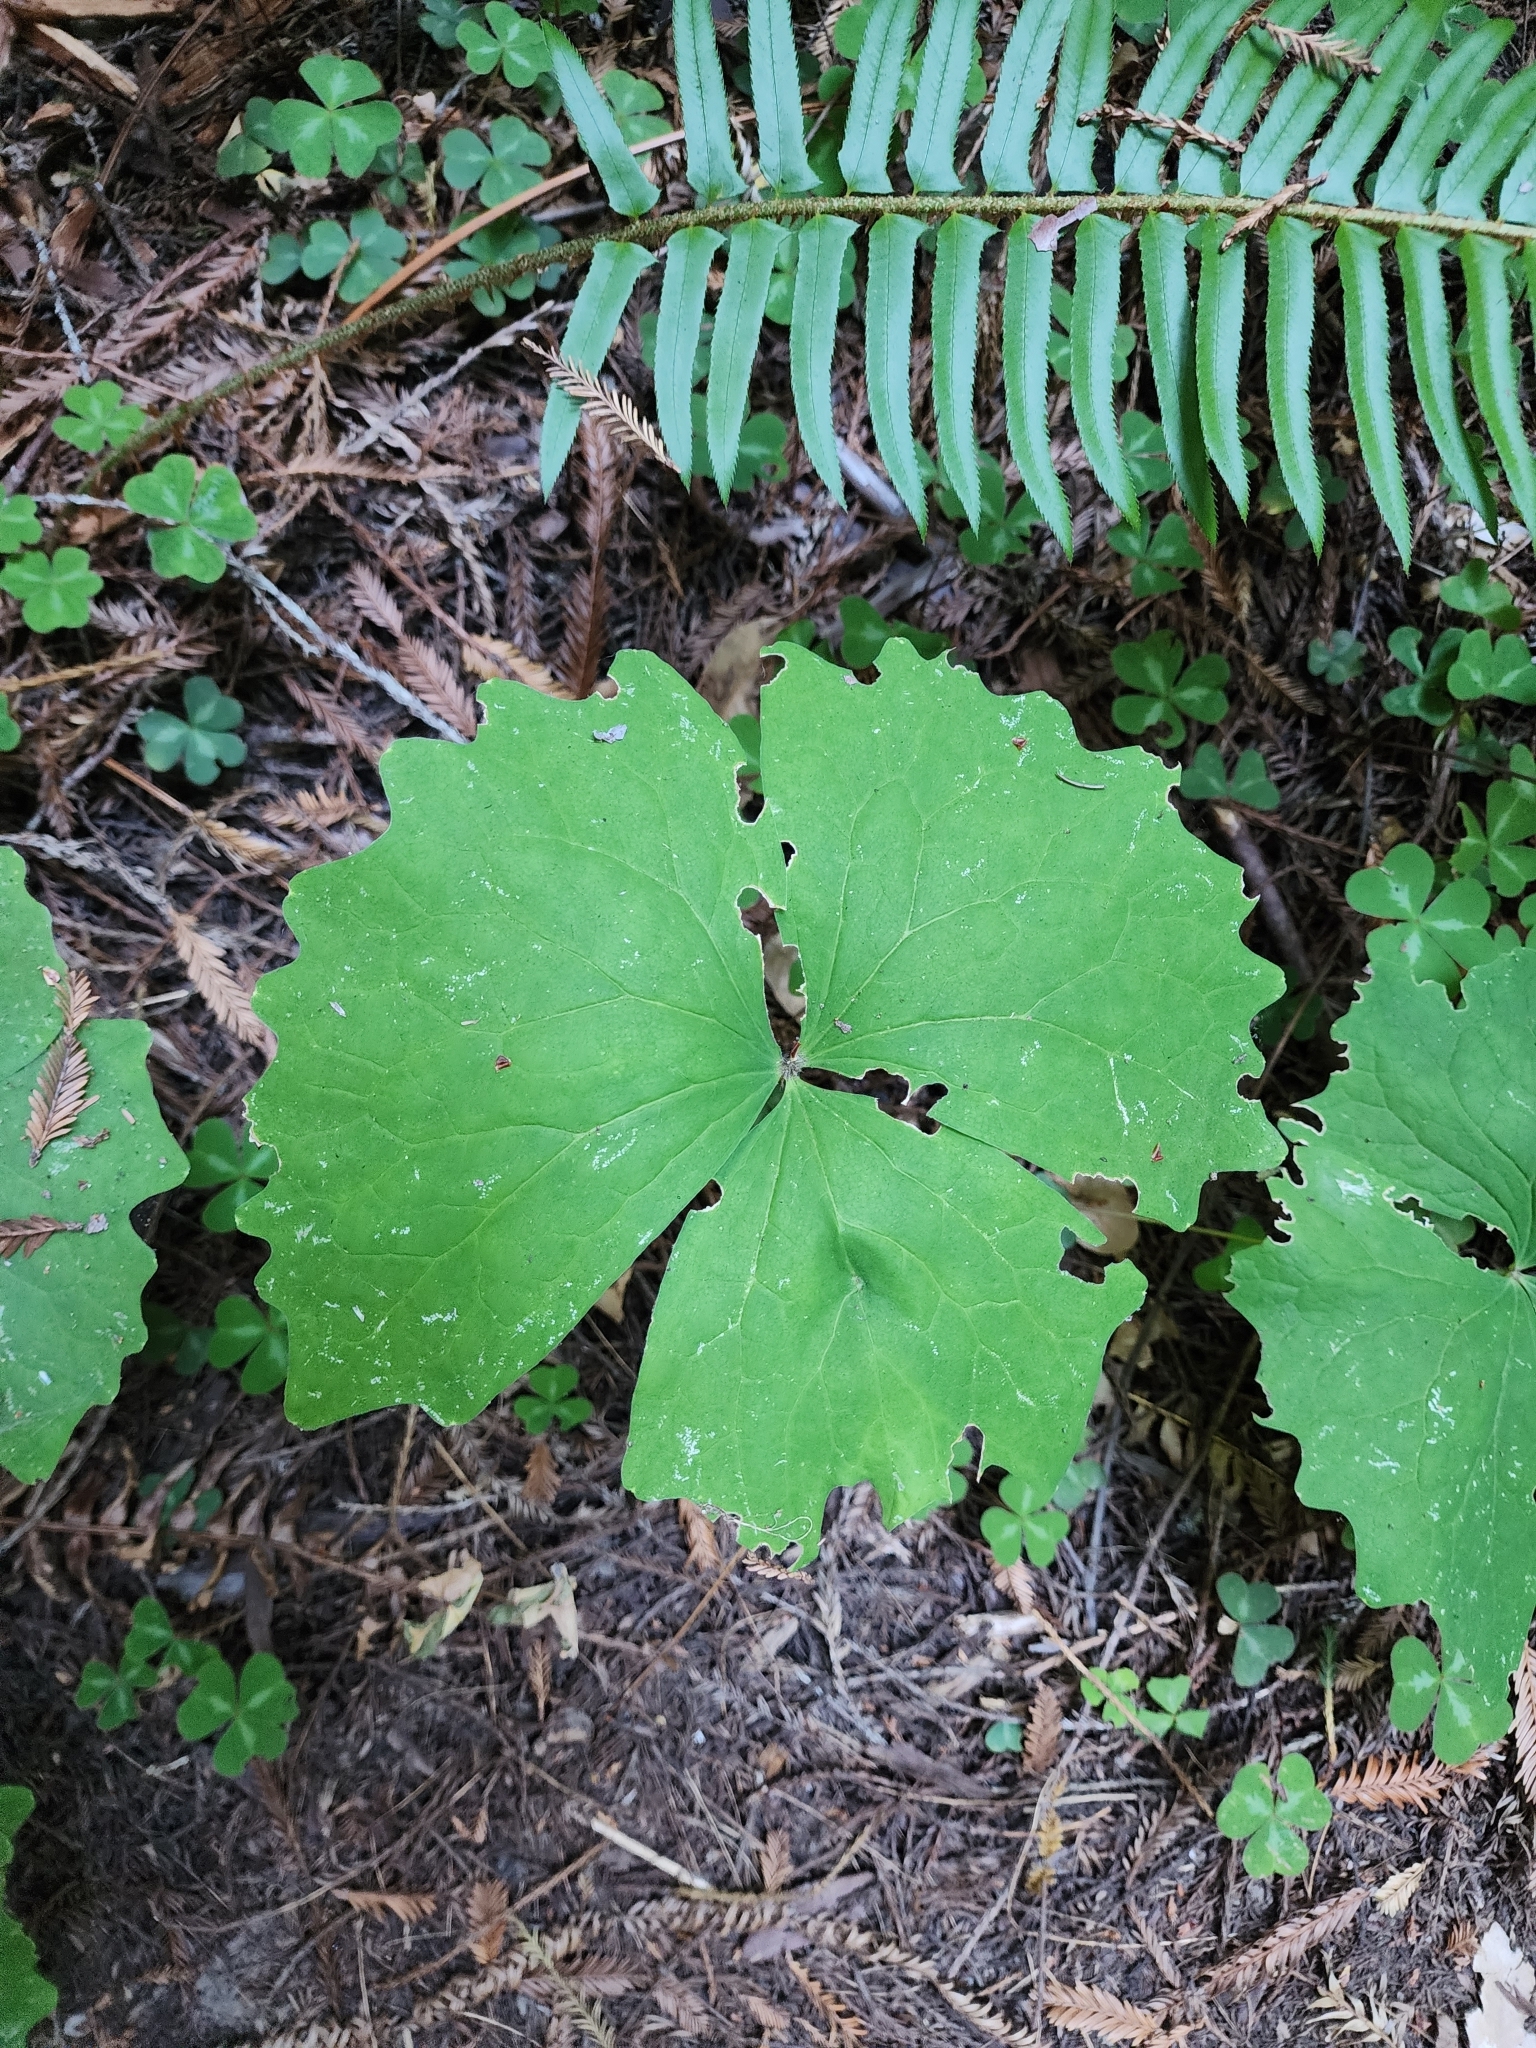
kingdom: Plantae
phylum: Tracheophyta
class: Magnoliopsida
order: Ranunculales
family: Berberidaceae
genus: Achlys
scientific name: Achlys triphylla
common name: Vanilla-leaf
